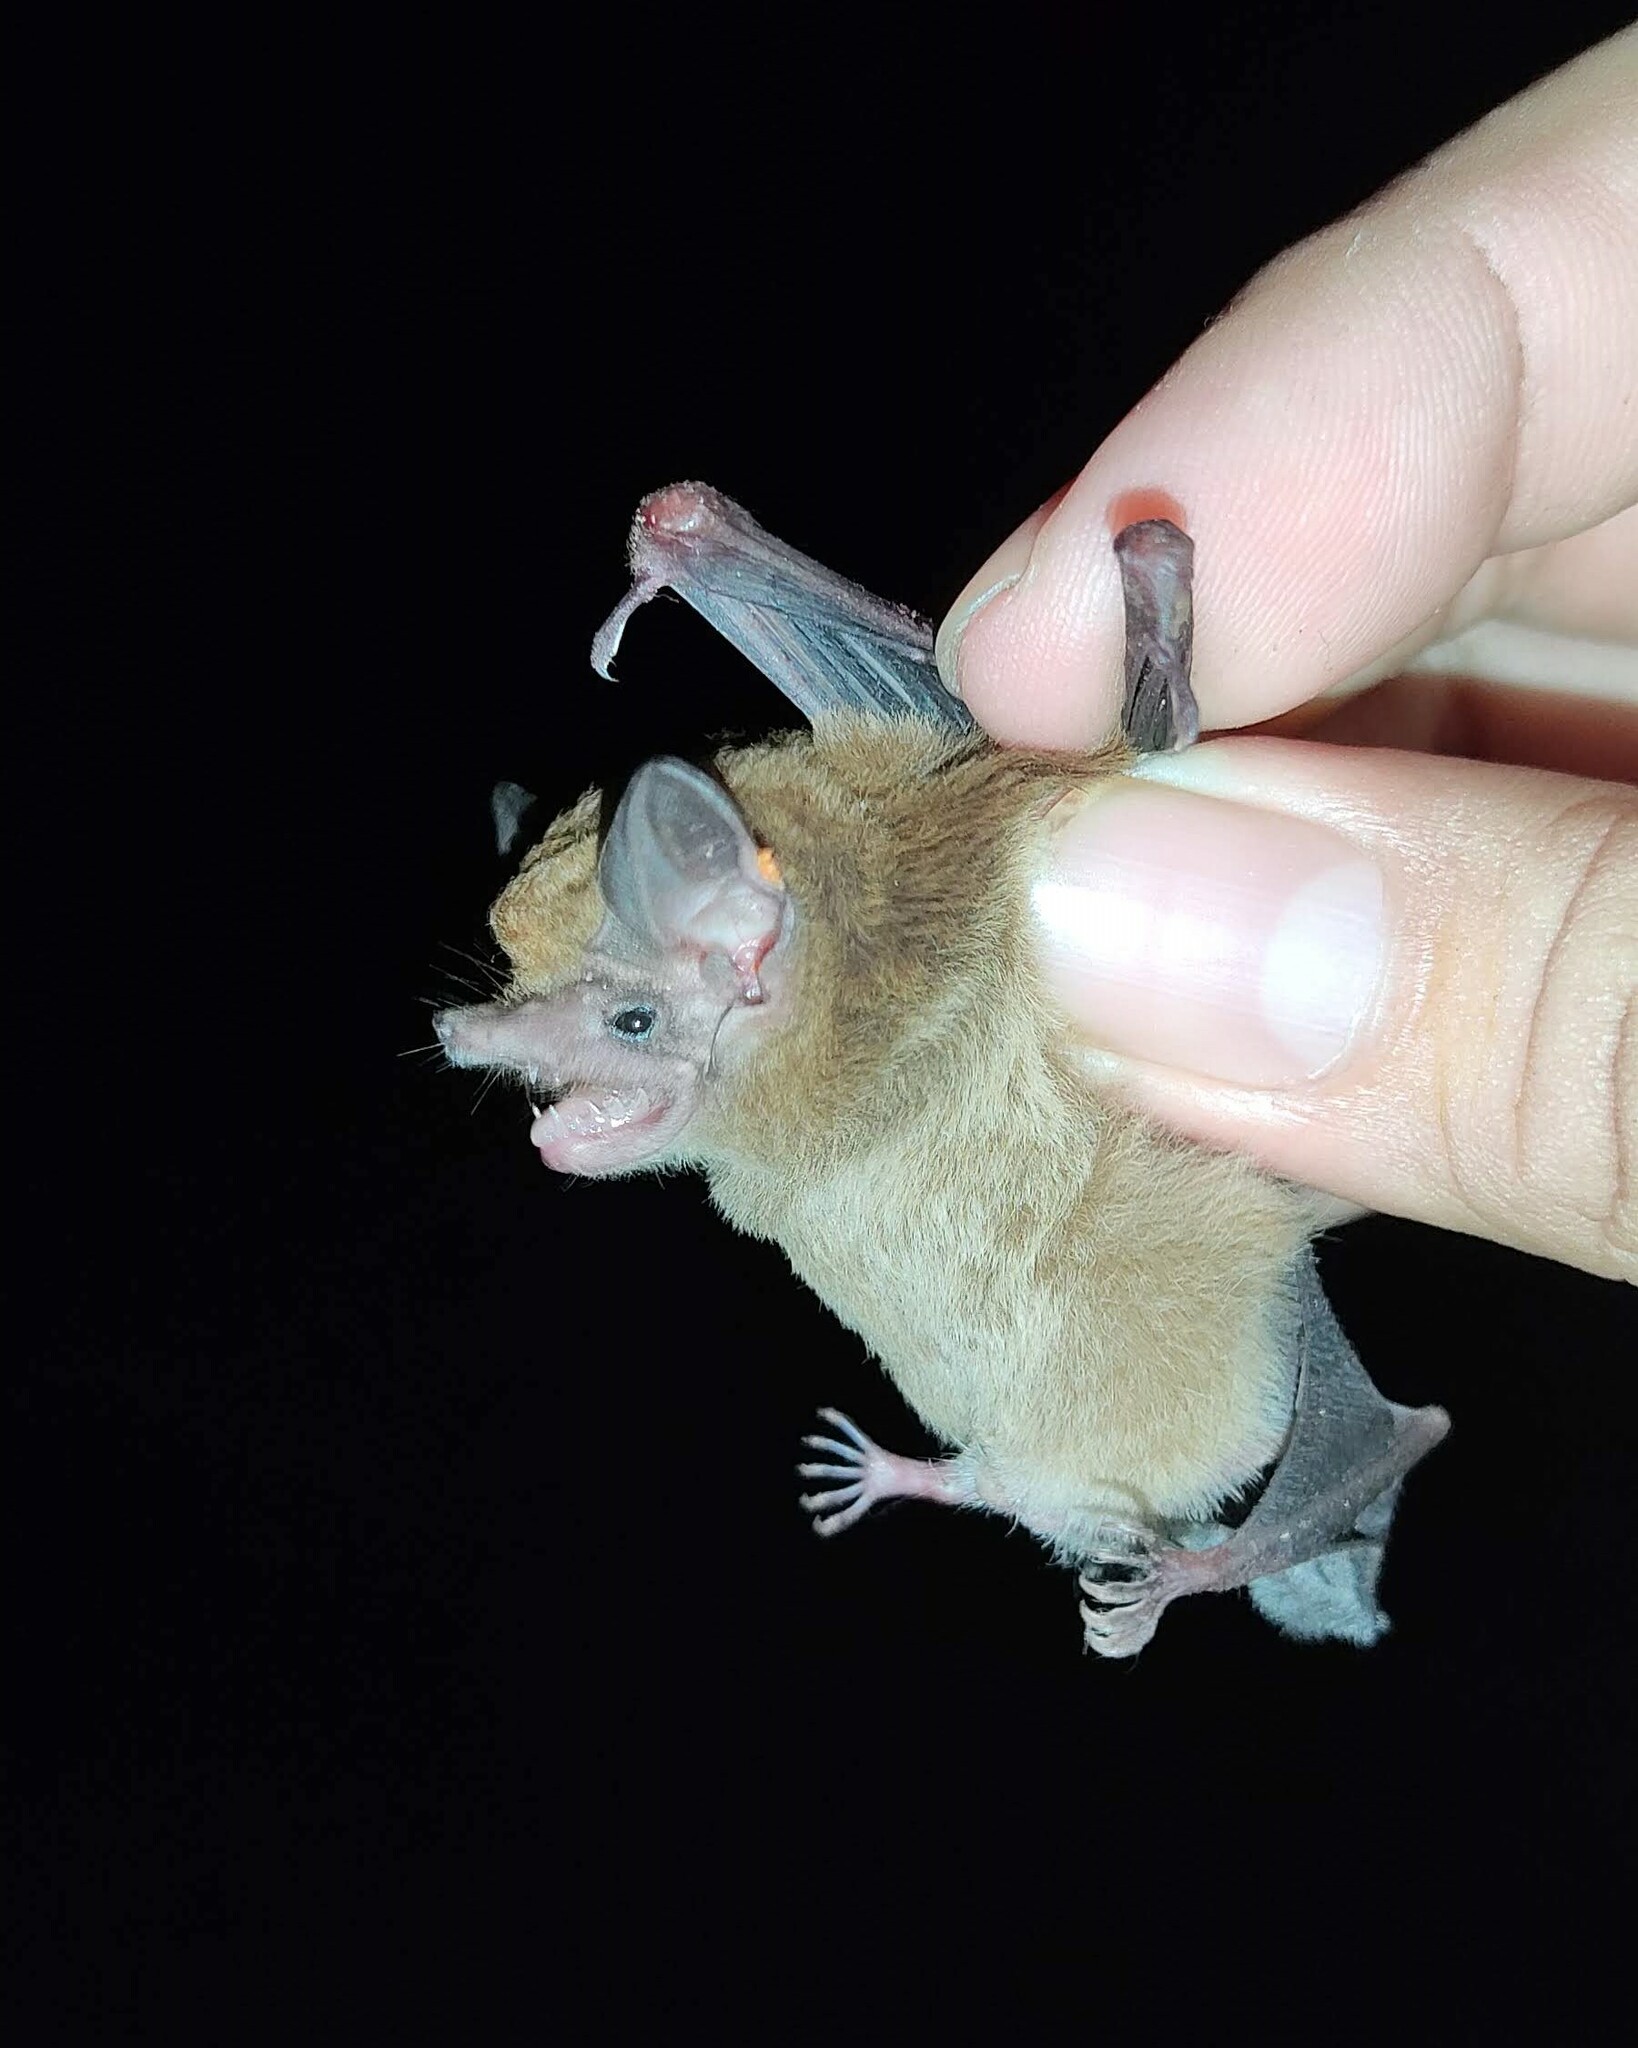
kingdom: Animalia
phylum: Chordata
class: Mammalia
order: Chiroptera
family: Emballonuridae
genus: Peropteryx
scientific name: Peropteryx macrotis
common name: Lesser dog-like bat
